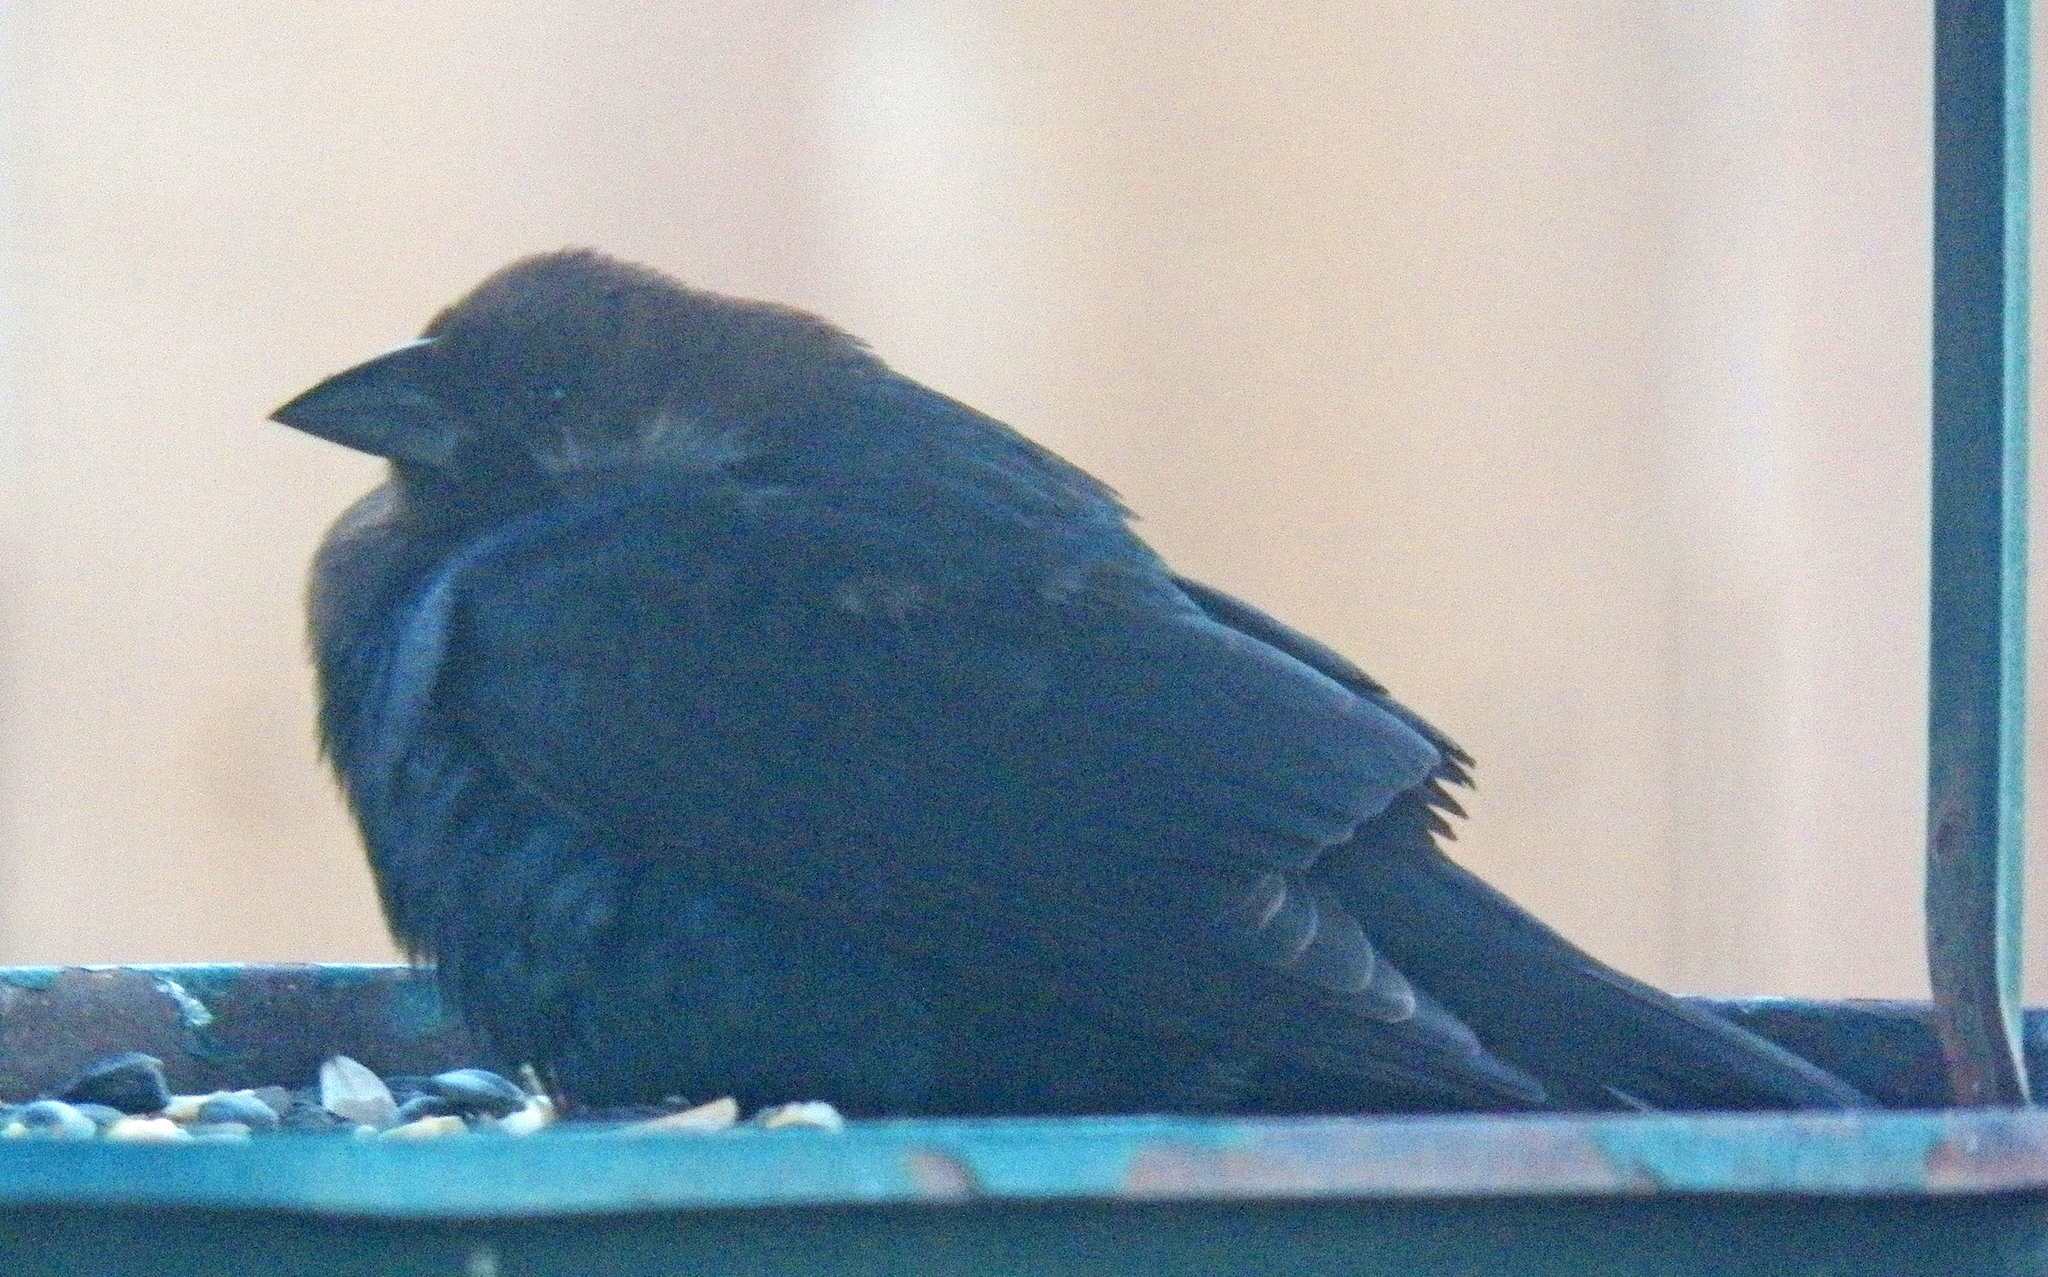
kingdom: Animalia
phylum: Chordata
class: Aves
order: Passeriformes
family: Icteridae
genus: Molothrus
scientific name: Molothrus ater
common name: Brown-headed cowbird
